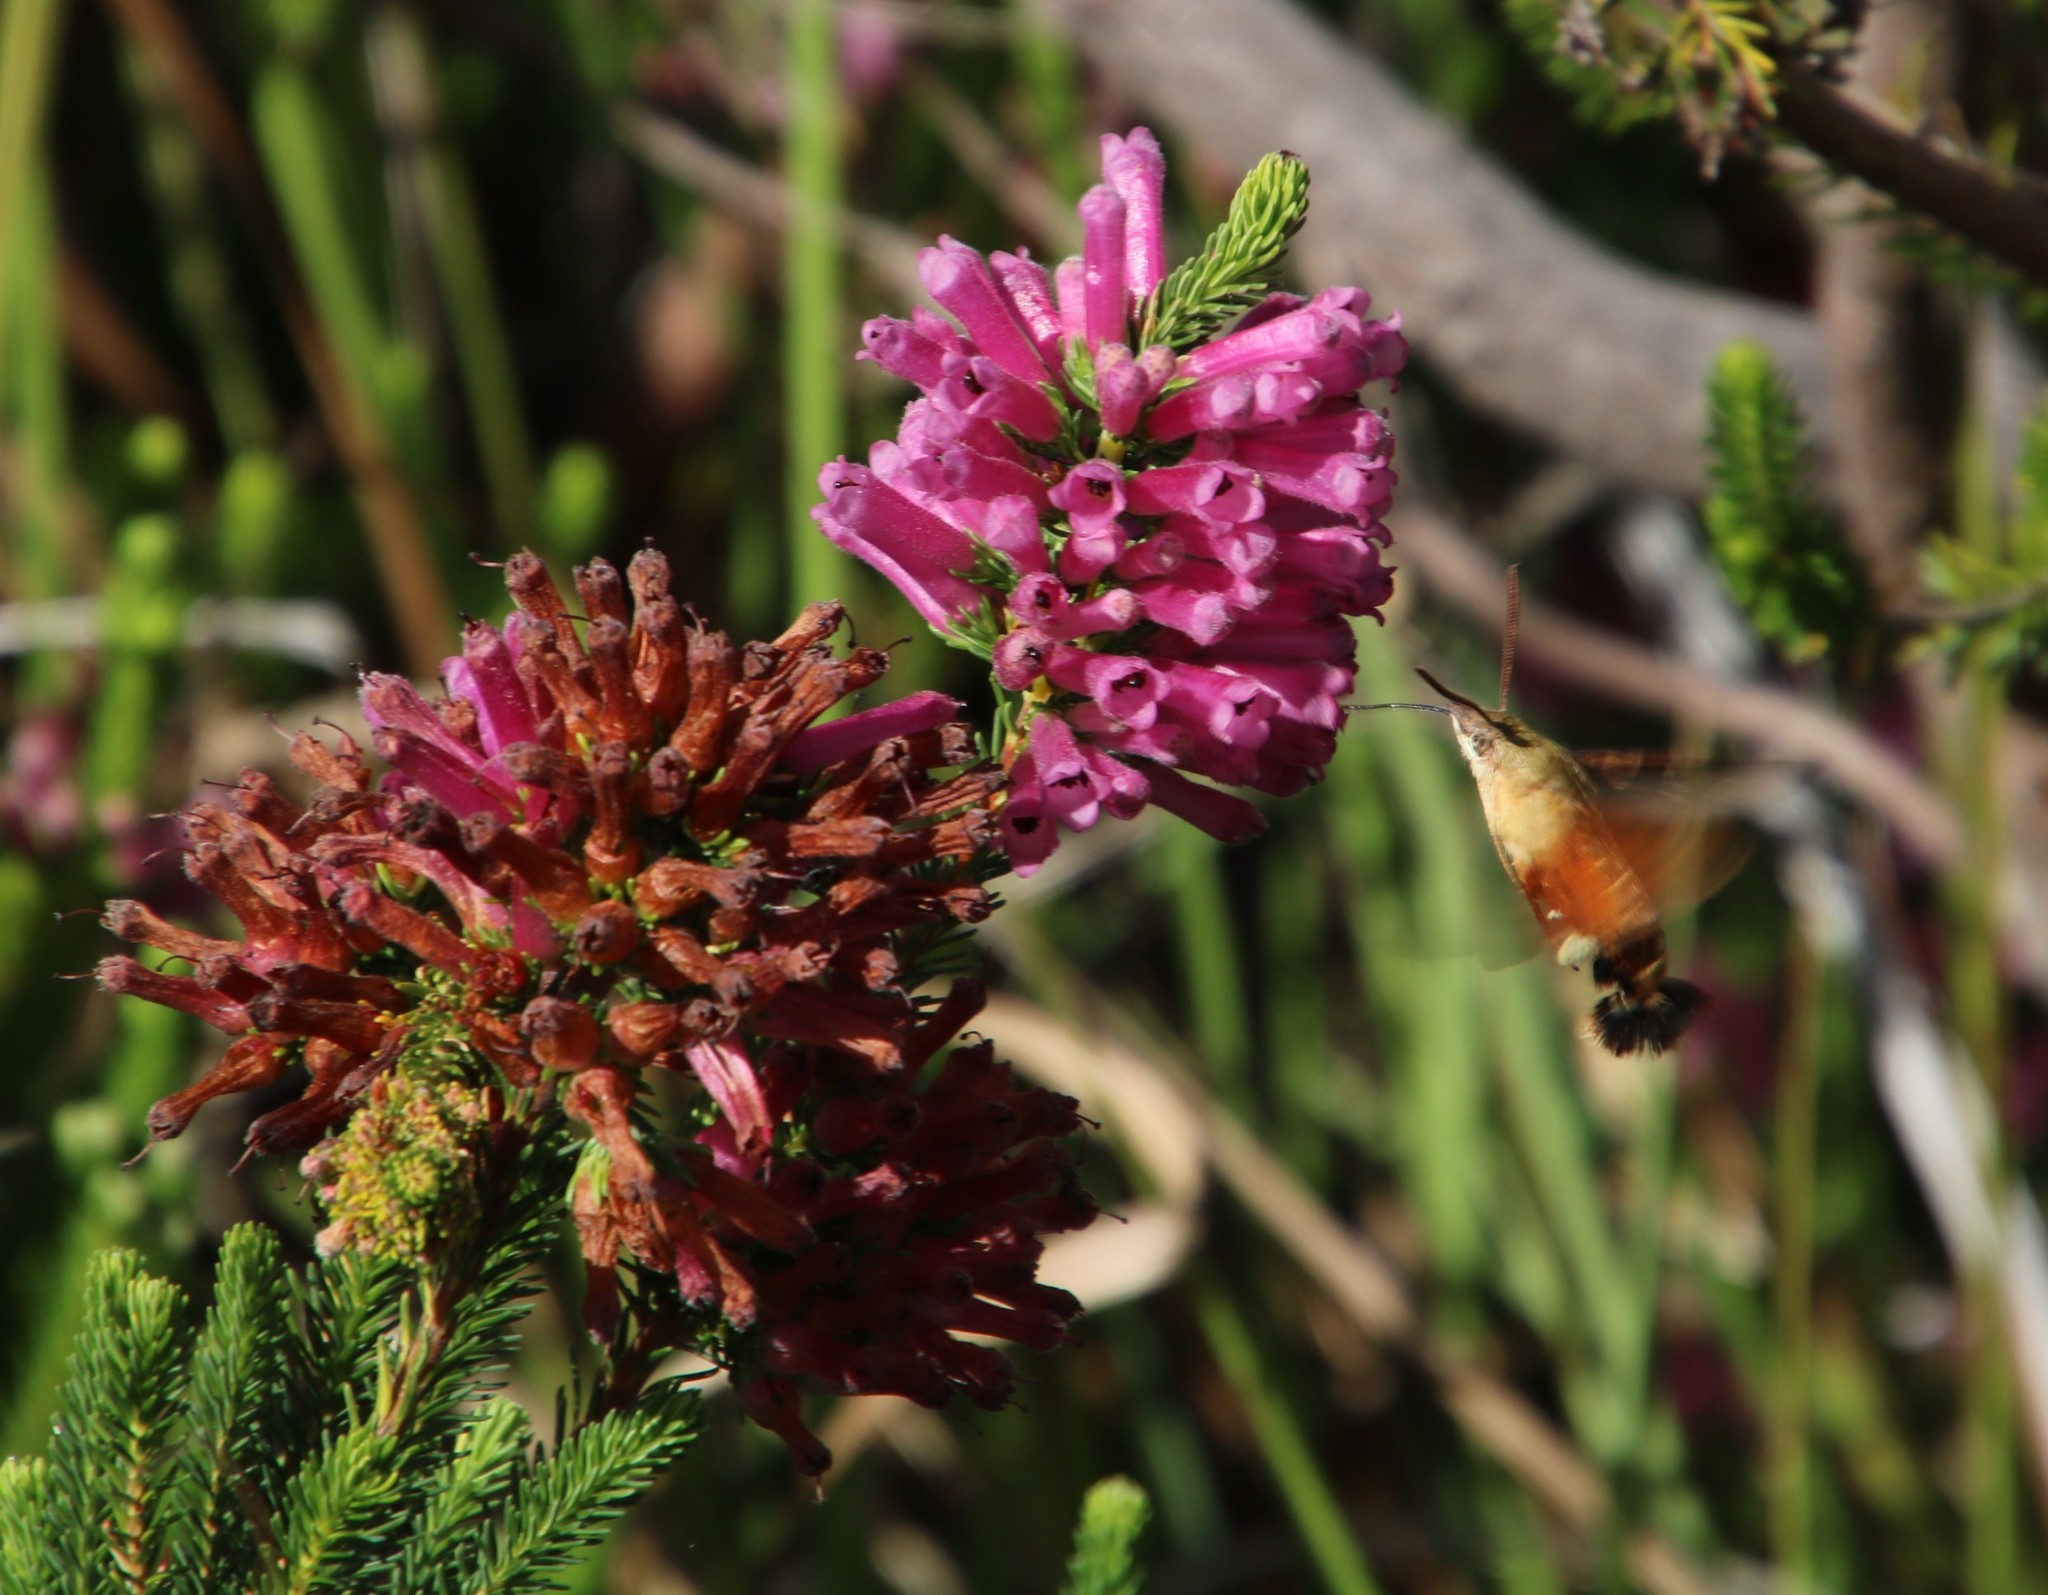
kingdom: Plantae
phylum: Tracheophyta
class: Magnoliopsida
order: Ericales
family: Ericaceae
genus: Erica
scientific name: Erica verticillata
